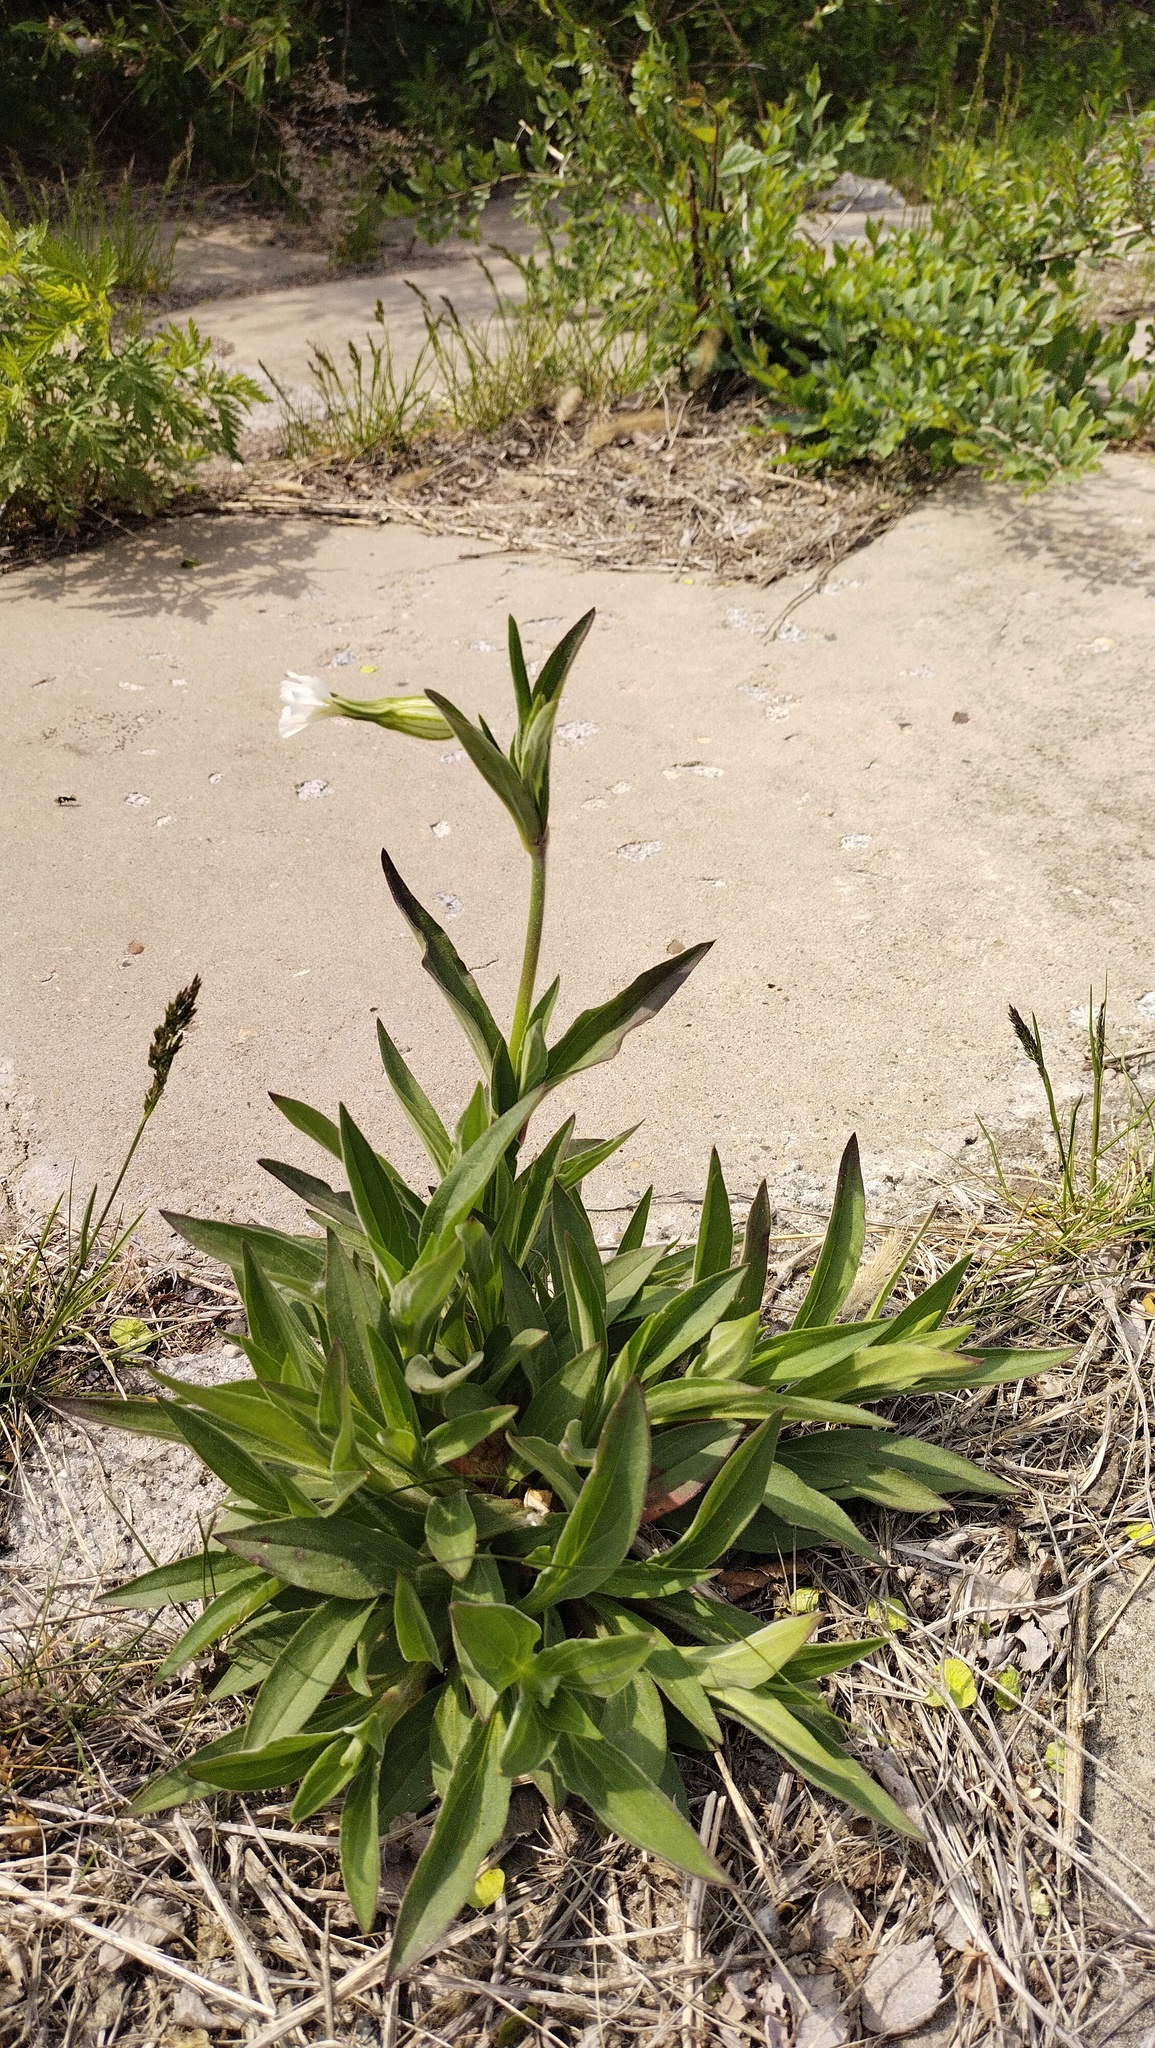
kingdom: Plantae
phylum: Tracheophyta
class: Magnoliopsida
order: Caryophyllales
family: Caryophyllaceae
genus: Silene
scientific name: Silene latifolia
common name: White campion
